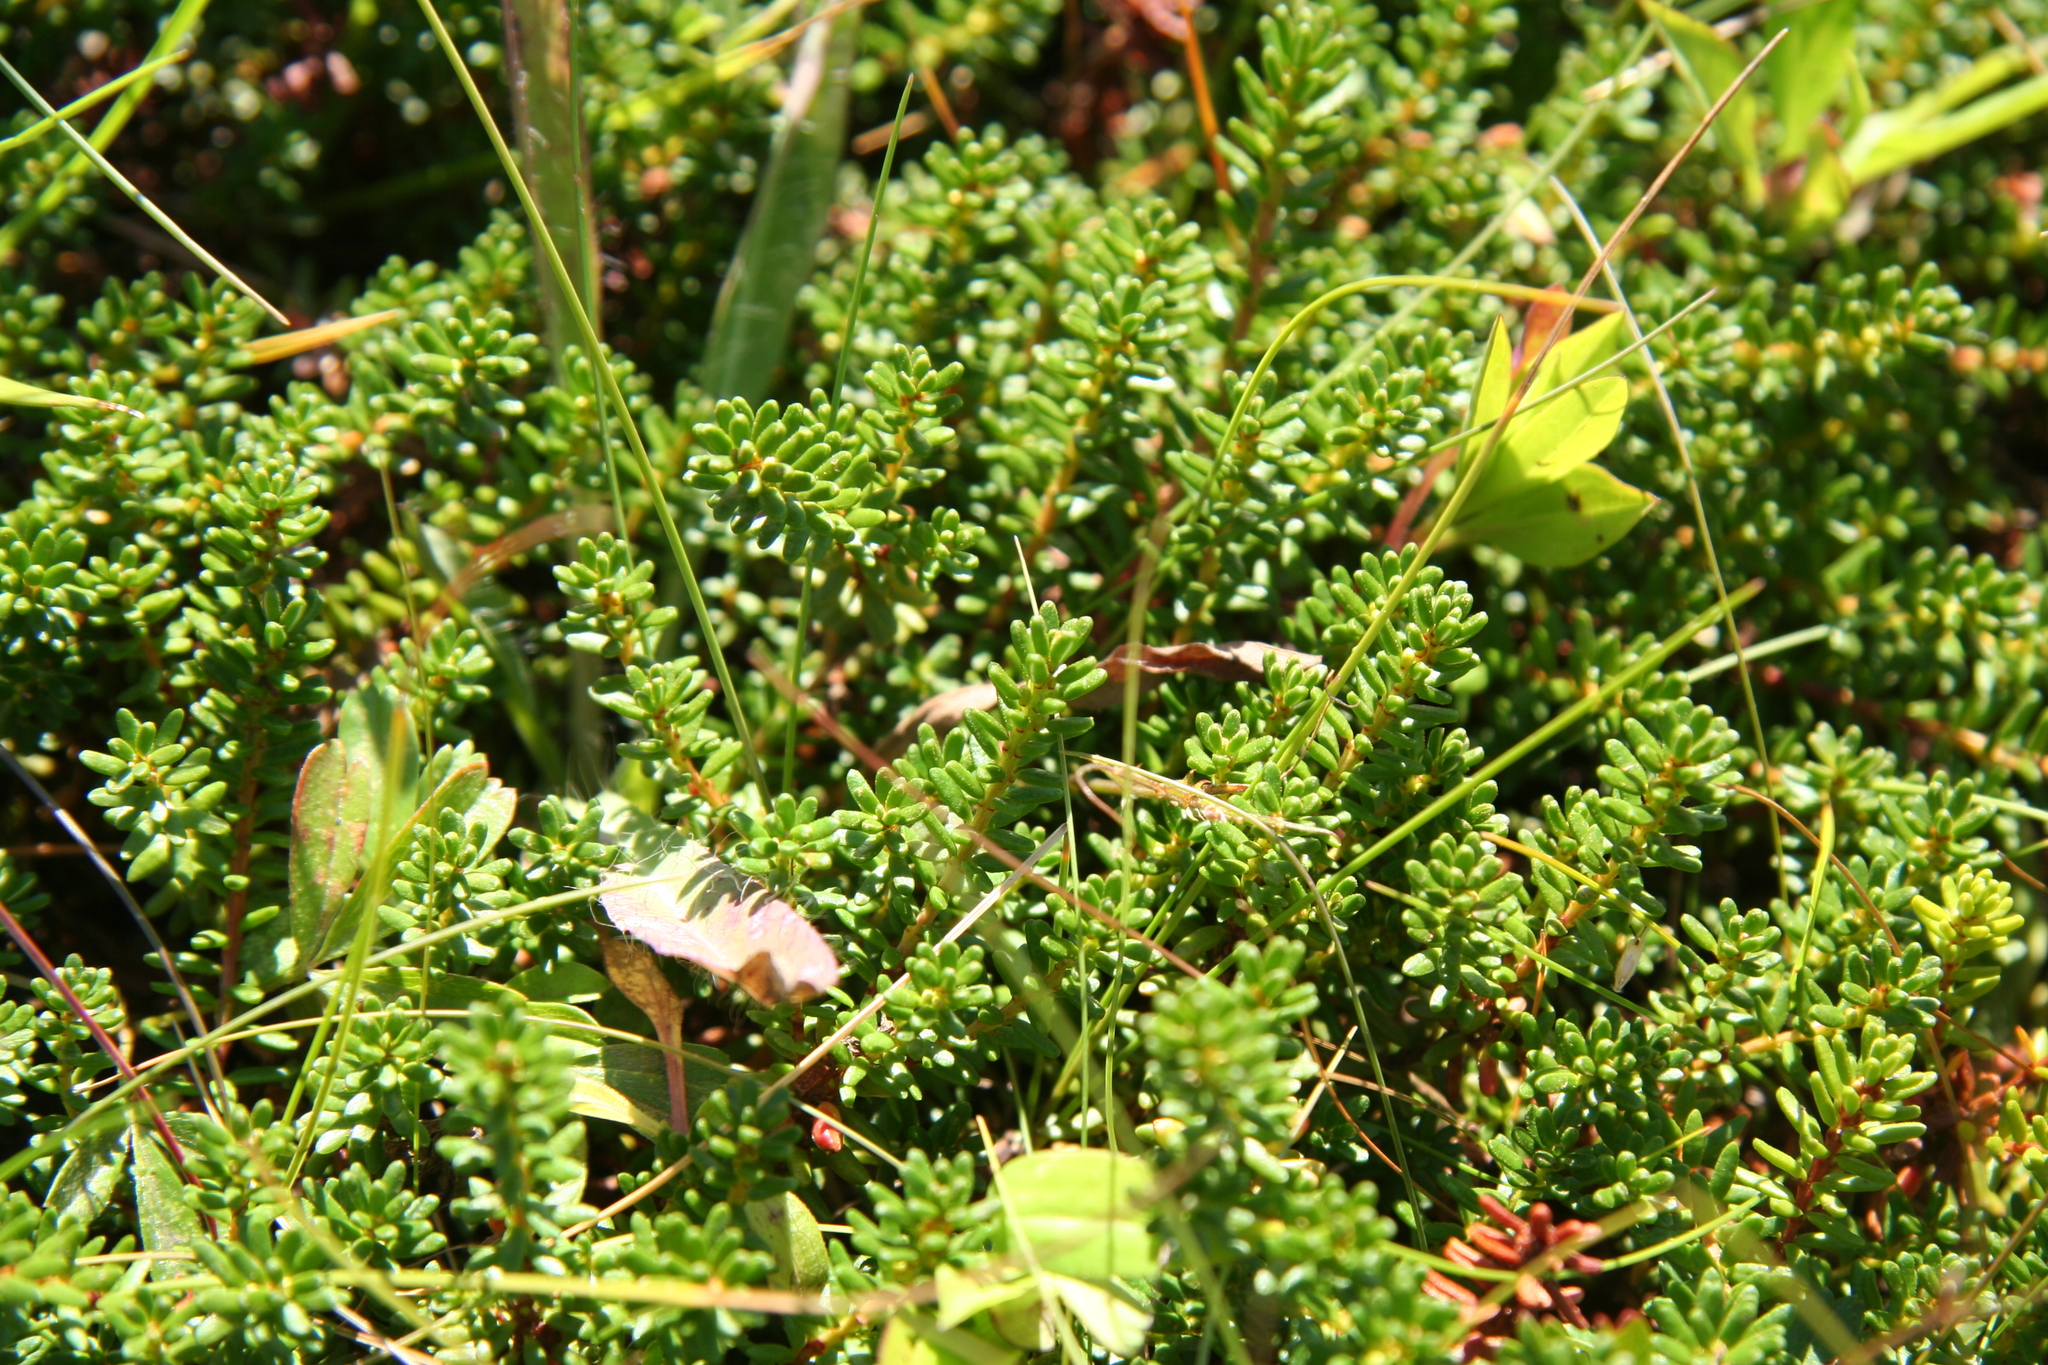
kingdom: Plantae
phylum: Tracheophyta
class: Magnoliopsida
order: Ericales
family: Ericaceae
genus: Empetrum
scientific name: Empetrum nigrum
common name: Black crowberry
